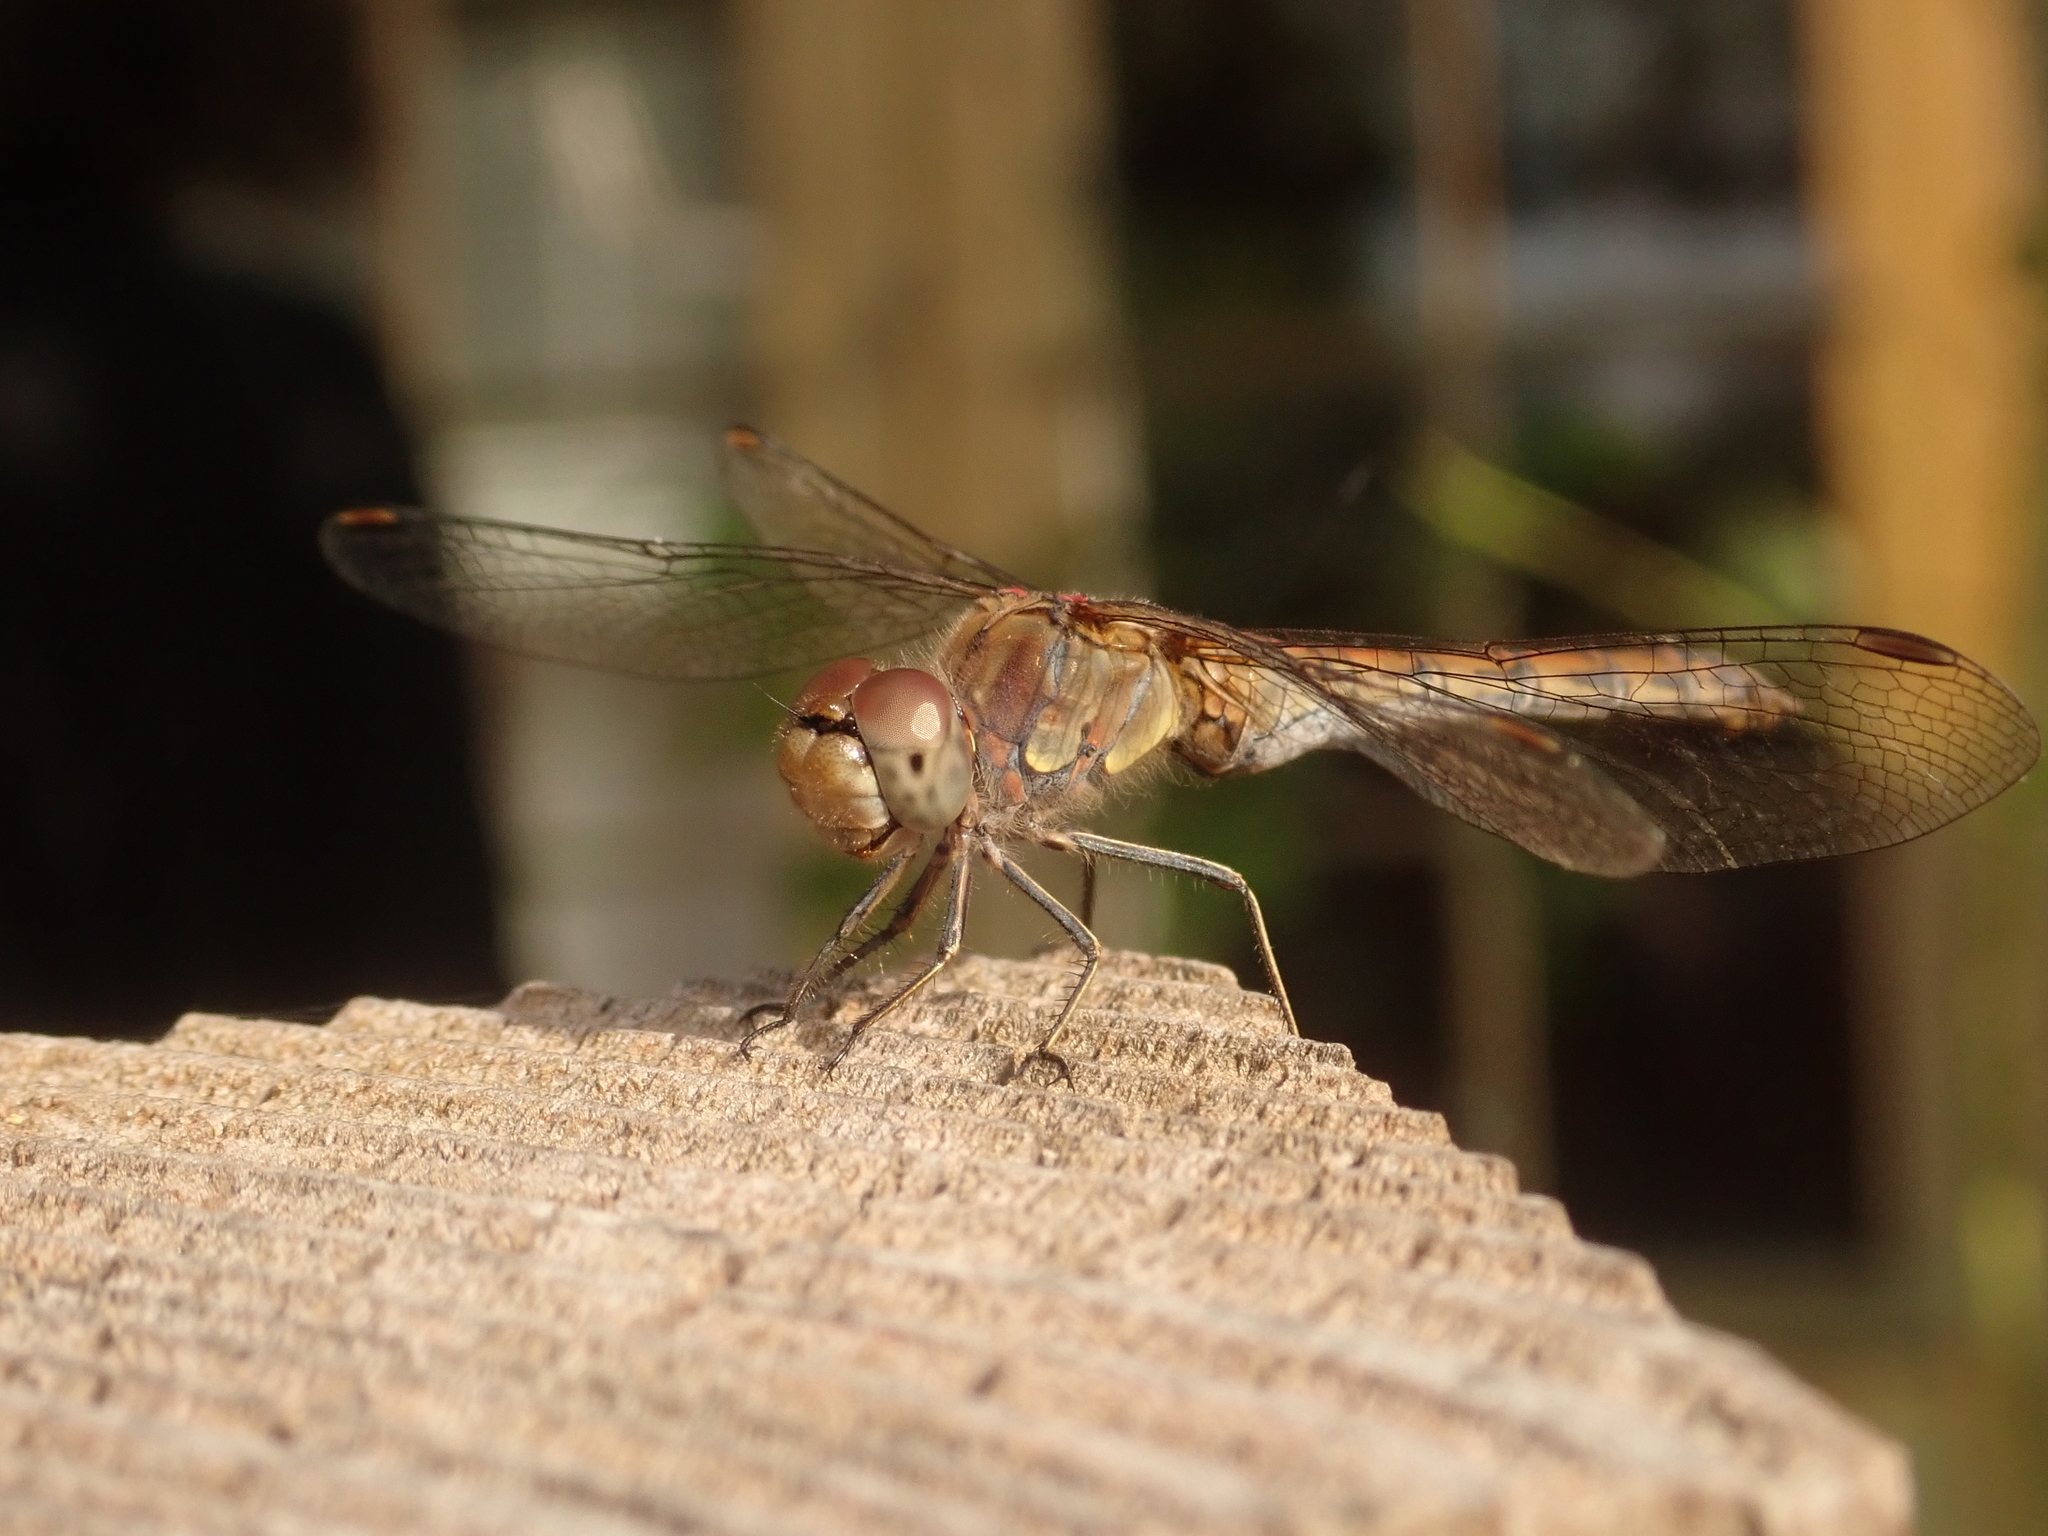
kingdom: Animalia
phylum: Arthropoda
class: Insecta
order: Odonata
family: Libellulidae
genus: Sympetrum
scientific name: Sympetrum striolatum
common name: Common darter
